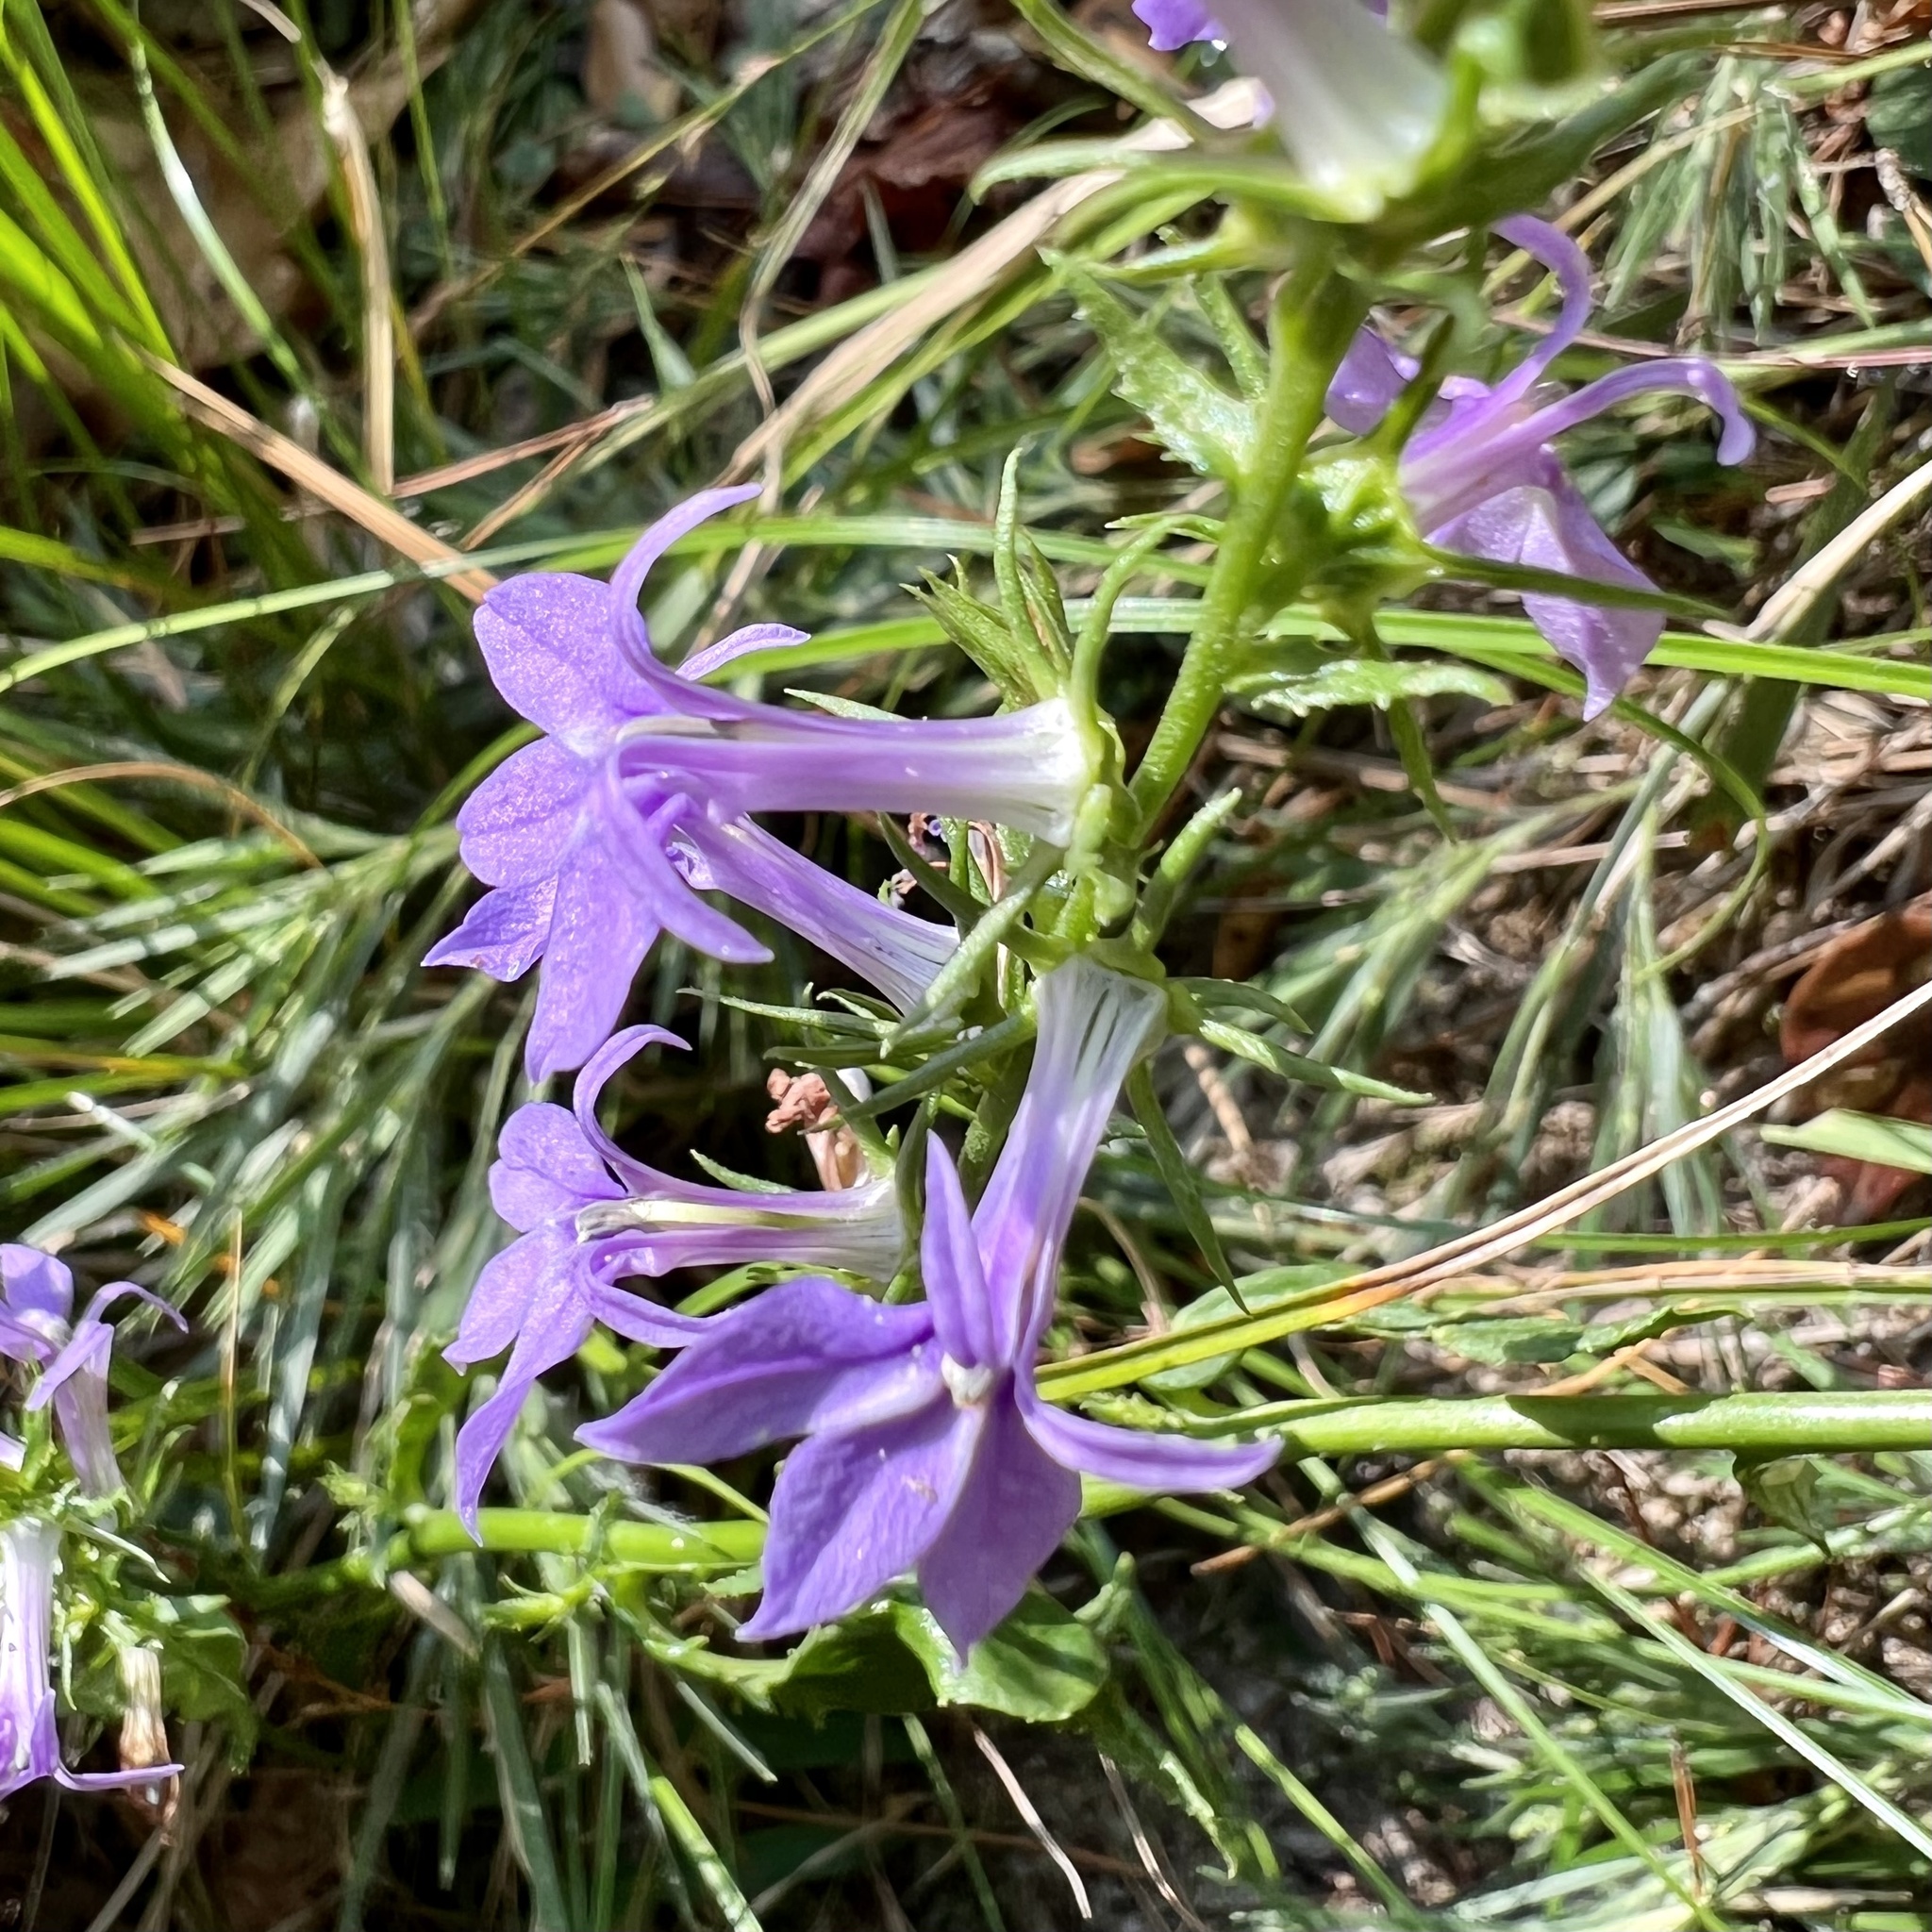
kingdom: Plantae
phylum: Tracheophyta
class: Magnoliopsida
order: Asterales
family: Campanulaceae
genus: Lobelia
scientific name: Lobelia puberula
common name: Purple dewdrop
